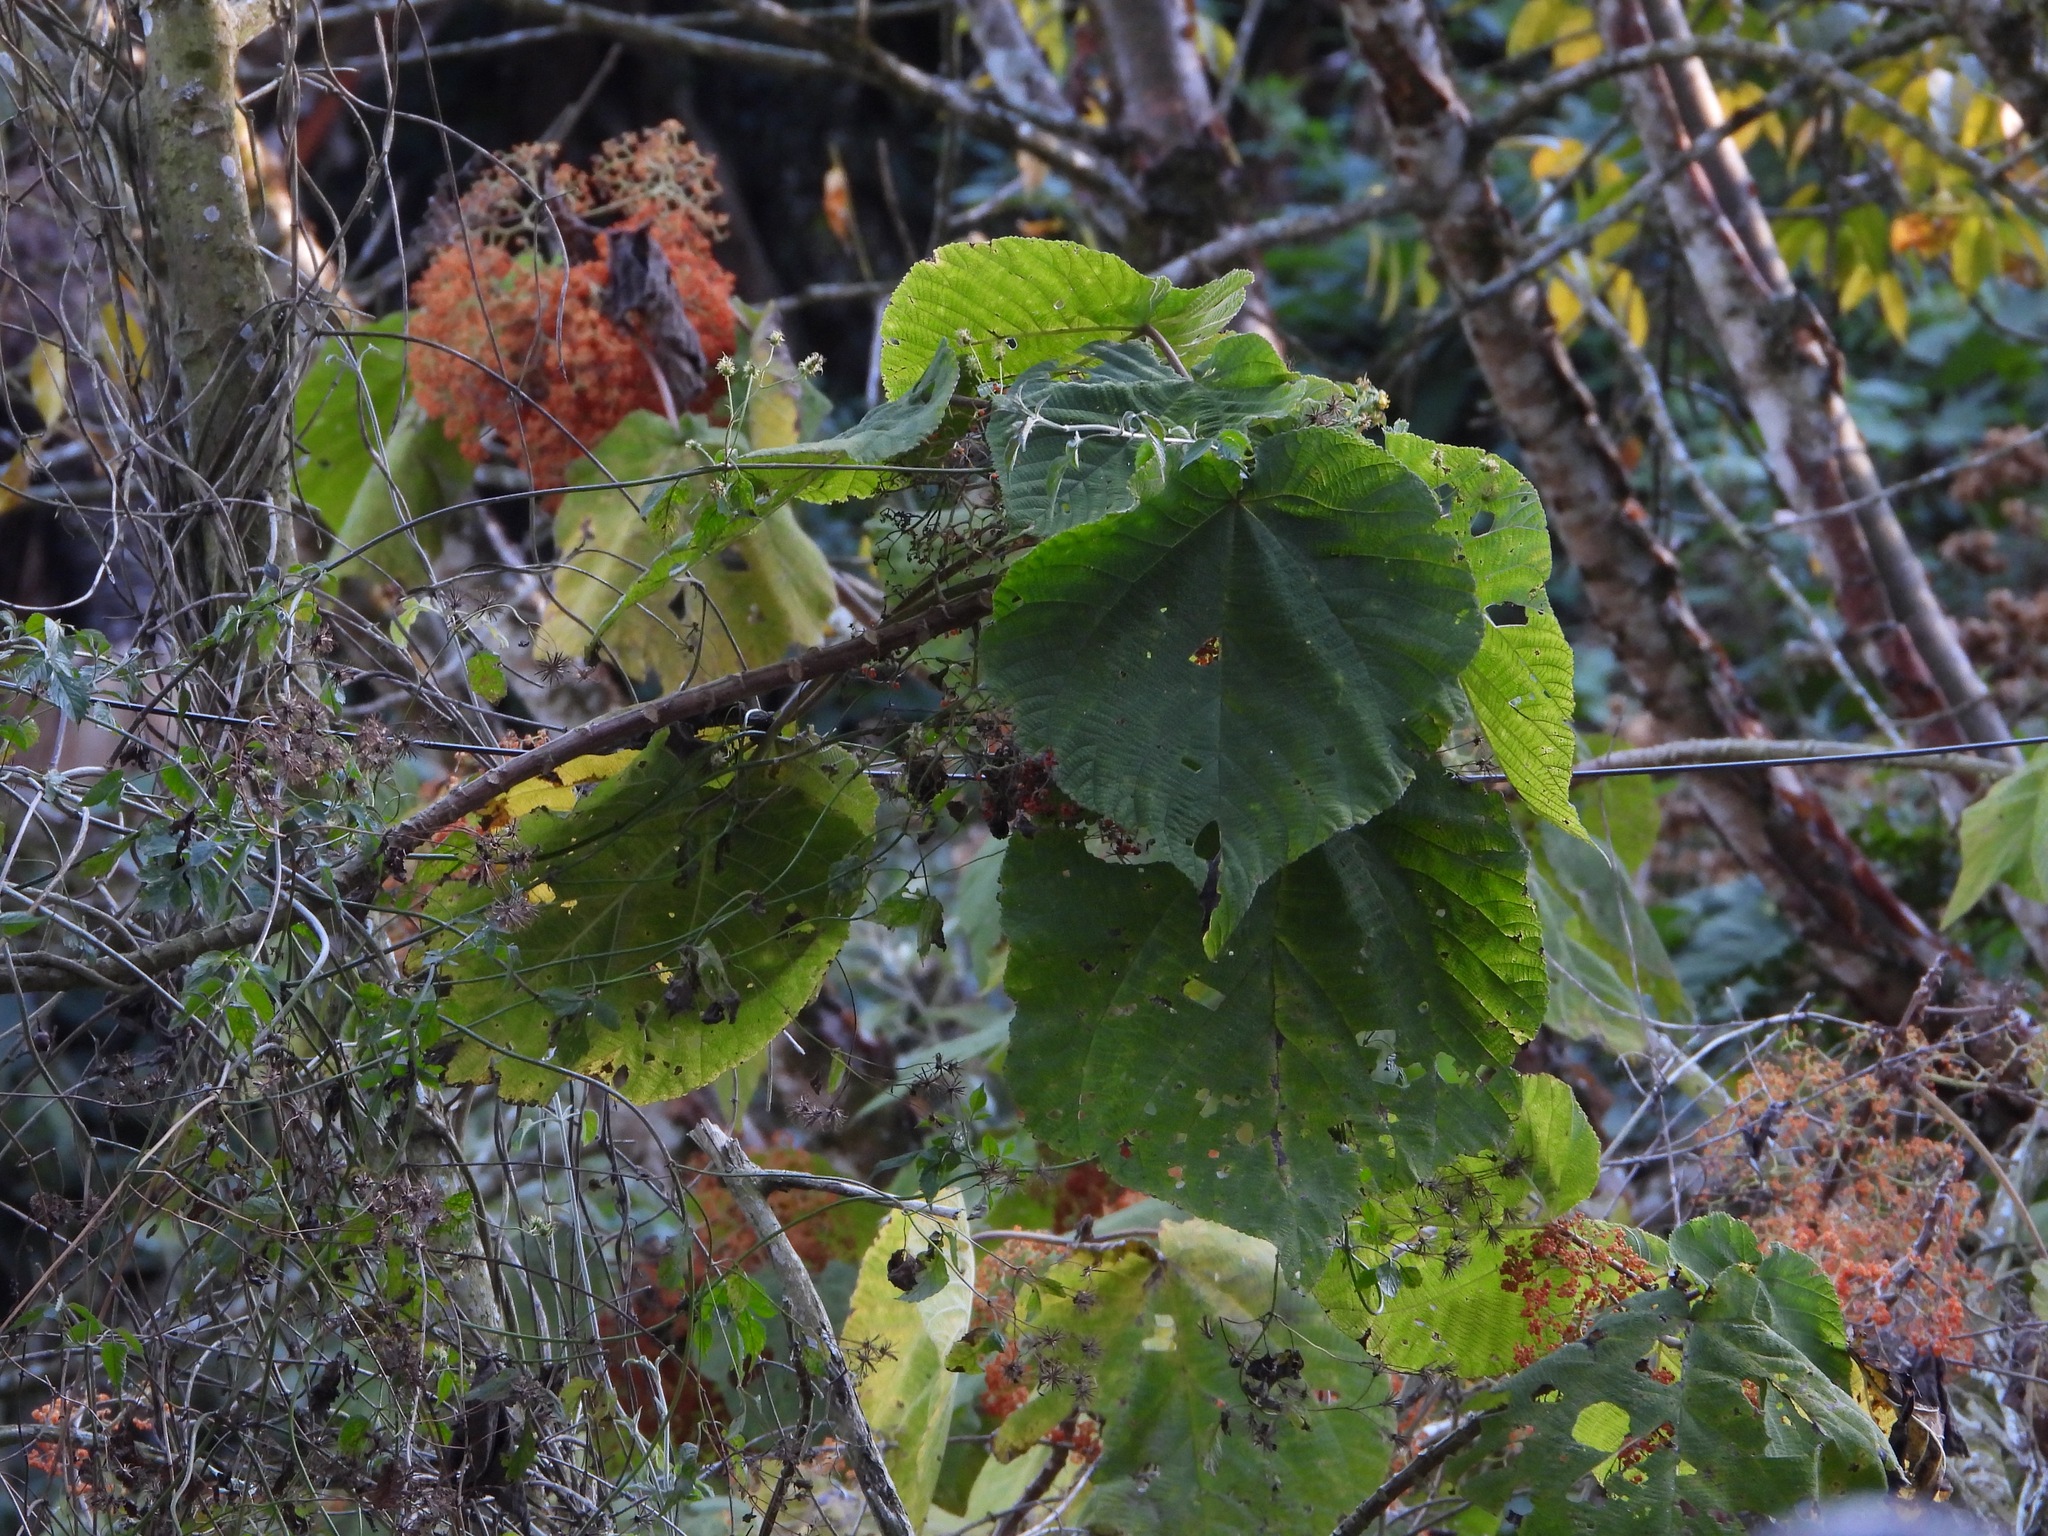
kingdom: Plantae
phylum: Tracheophyta
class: Magnoliopsida
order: Rosales
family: Urticaceae
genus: Urera
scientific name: Urera caracasana
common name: Flameberry
